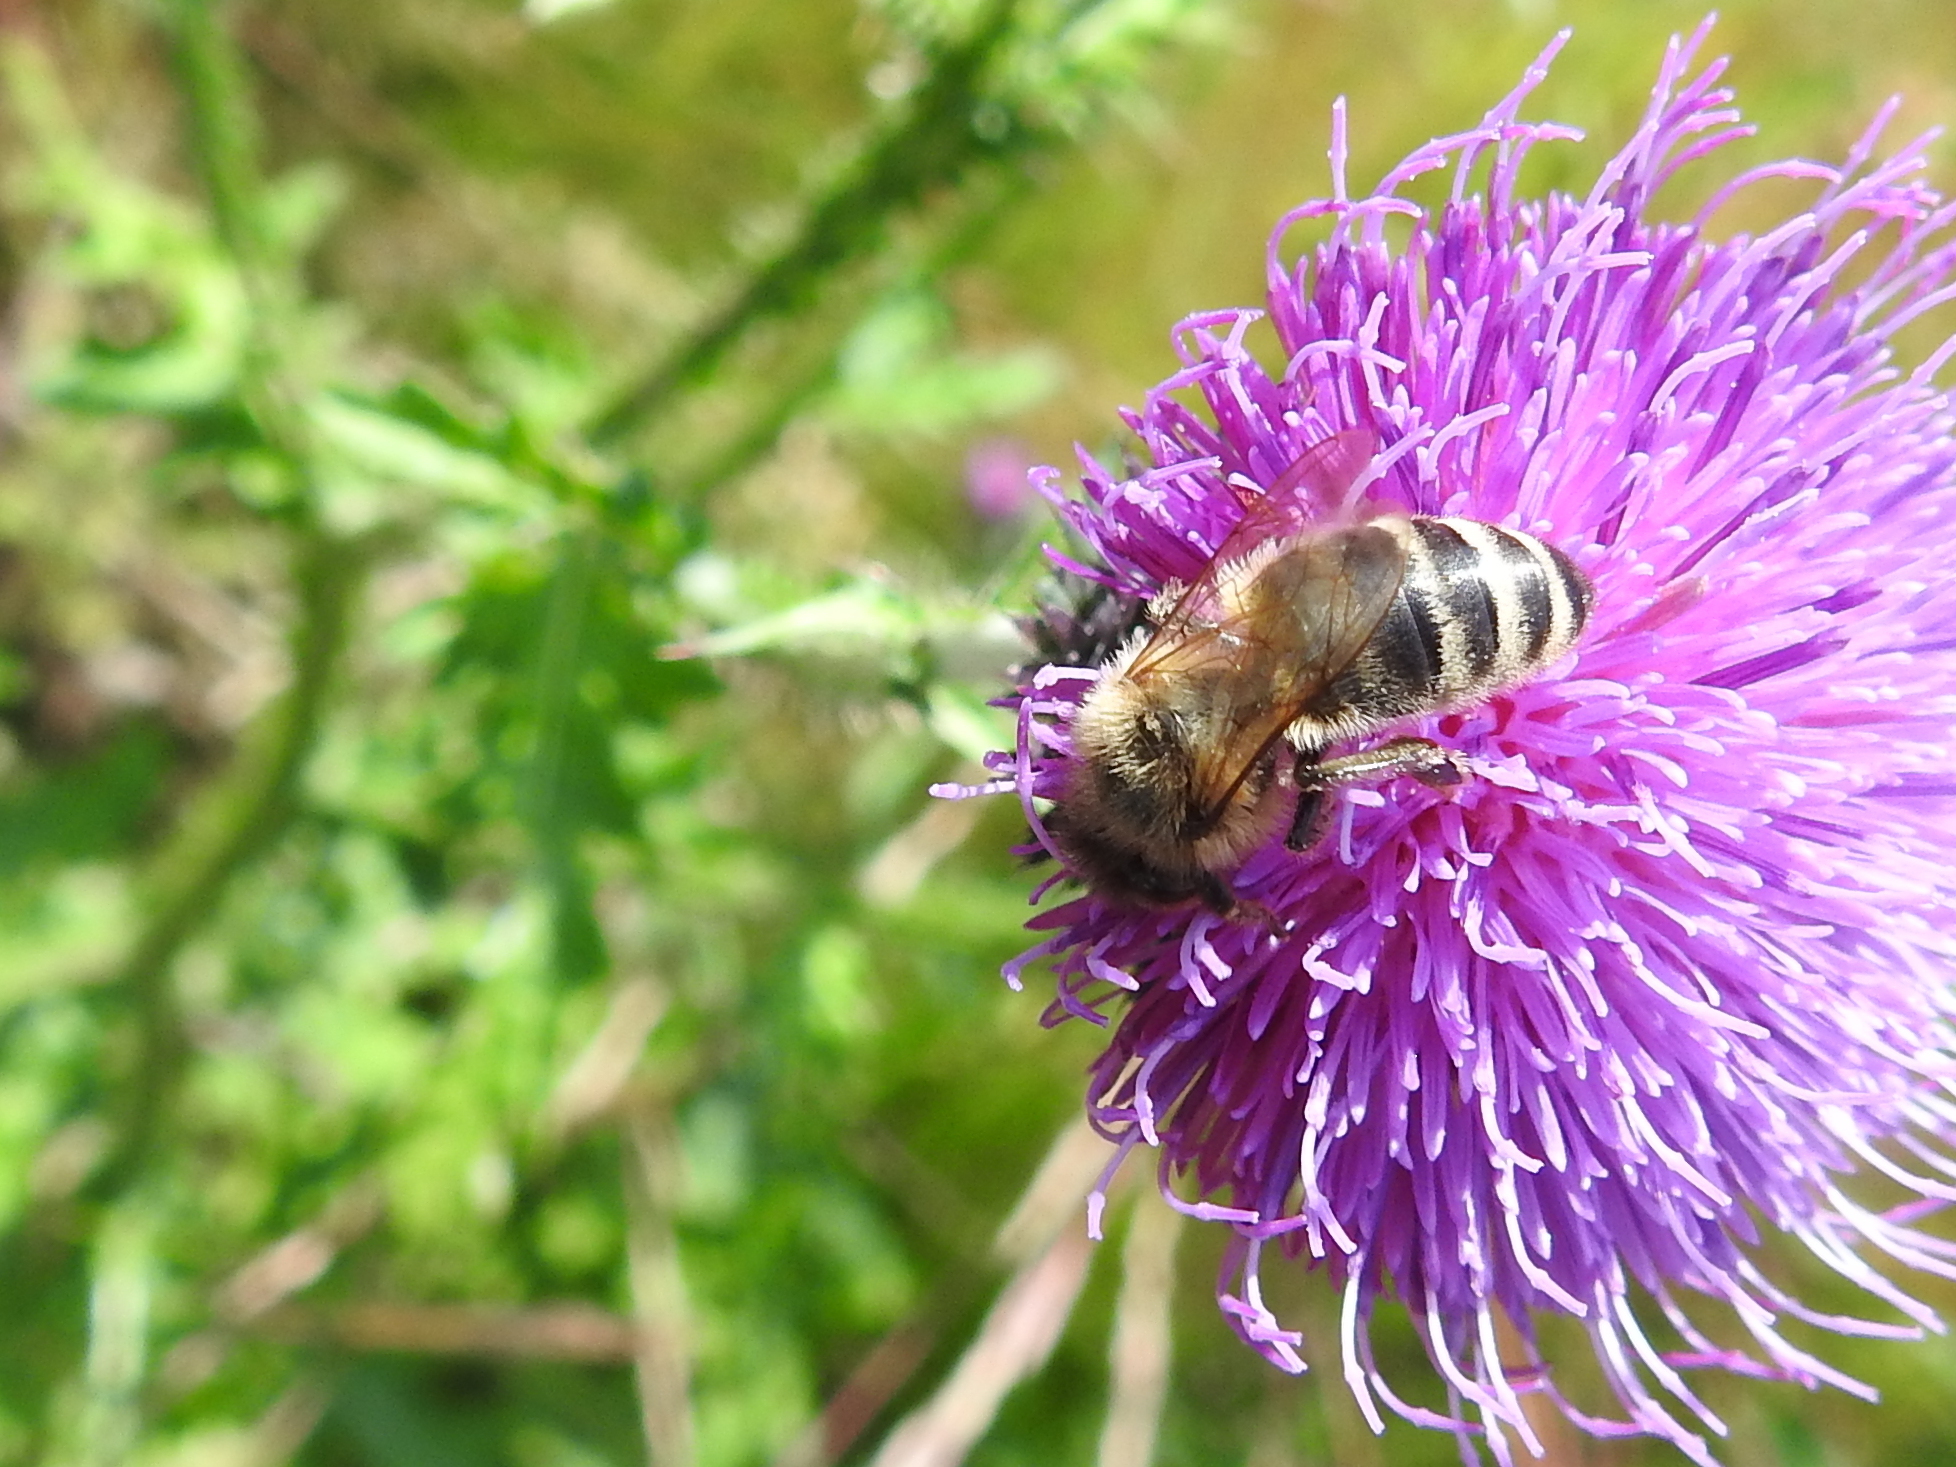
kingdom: Animalia
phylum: Arthropoda
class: Insecta
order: Hymenoptera
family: Apidae
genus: Apis
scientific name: Apis mellifera
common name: Honey bee
